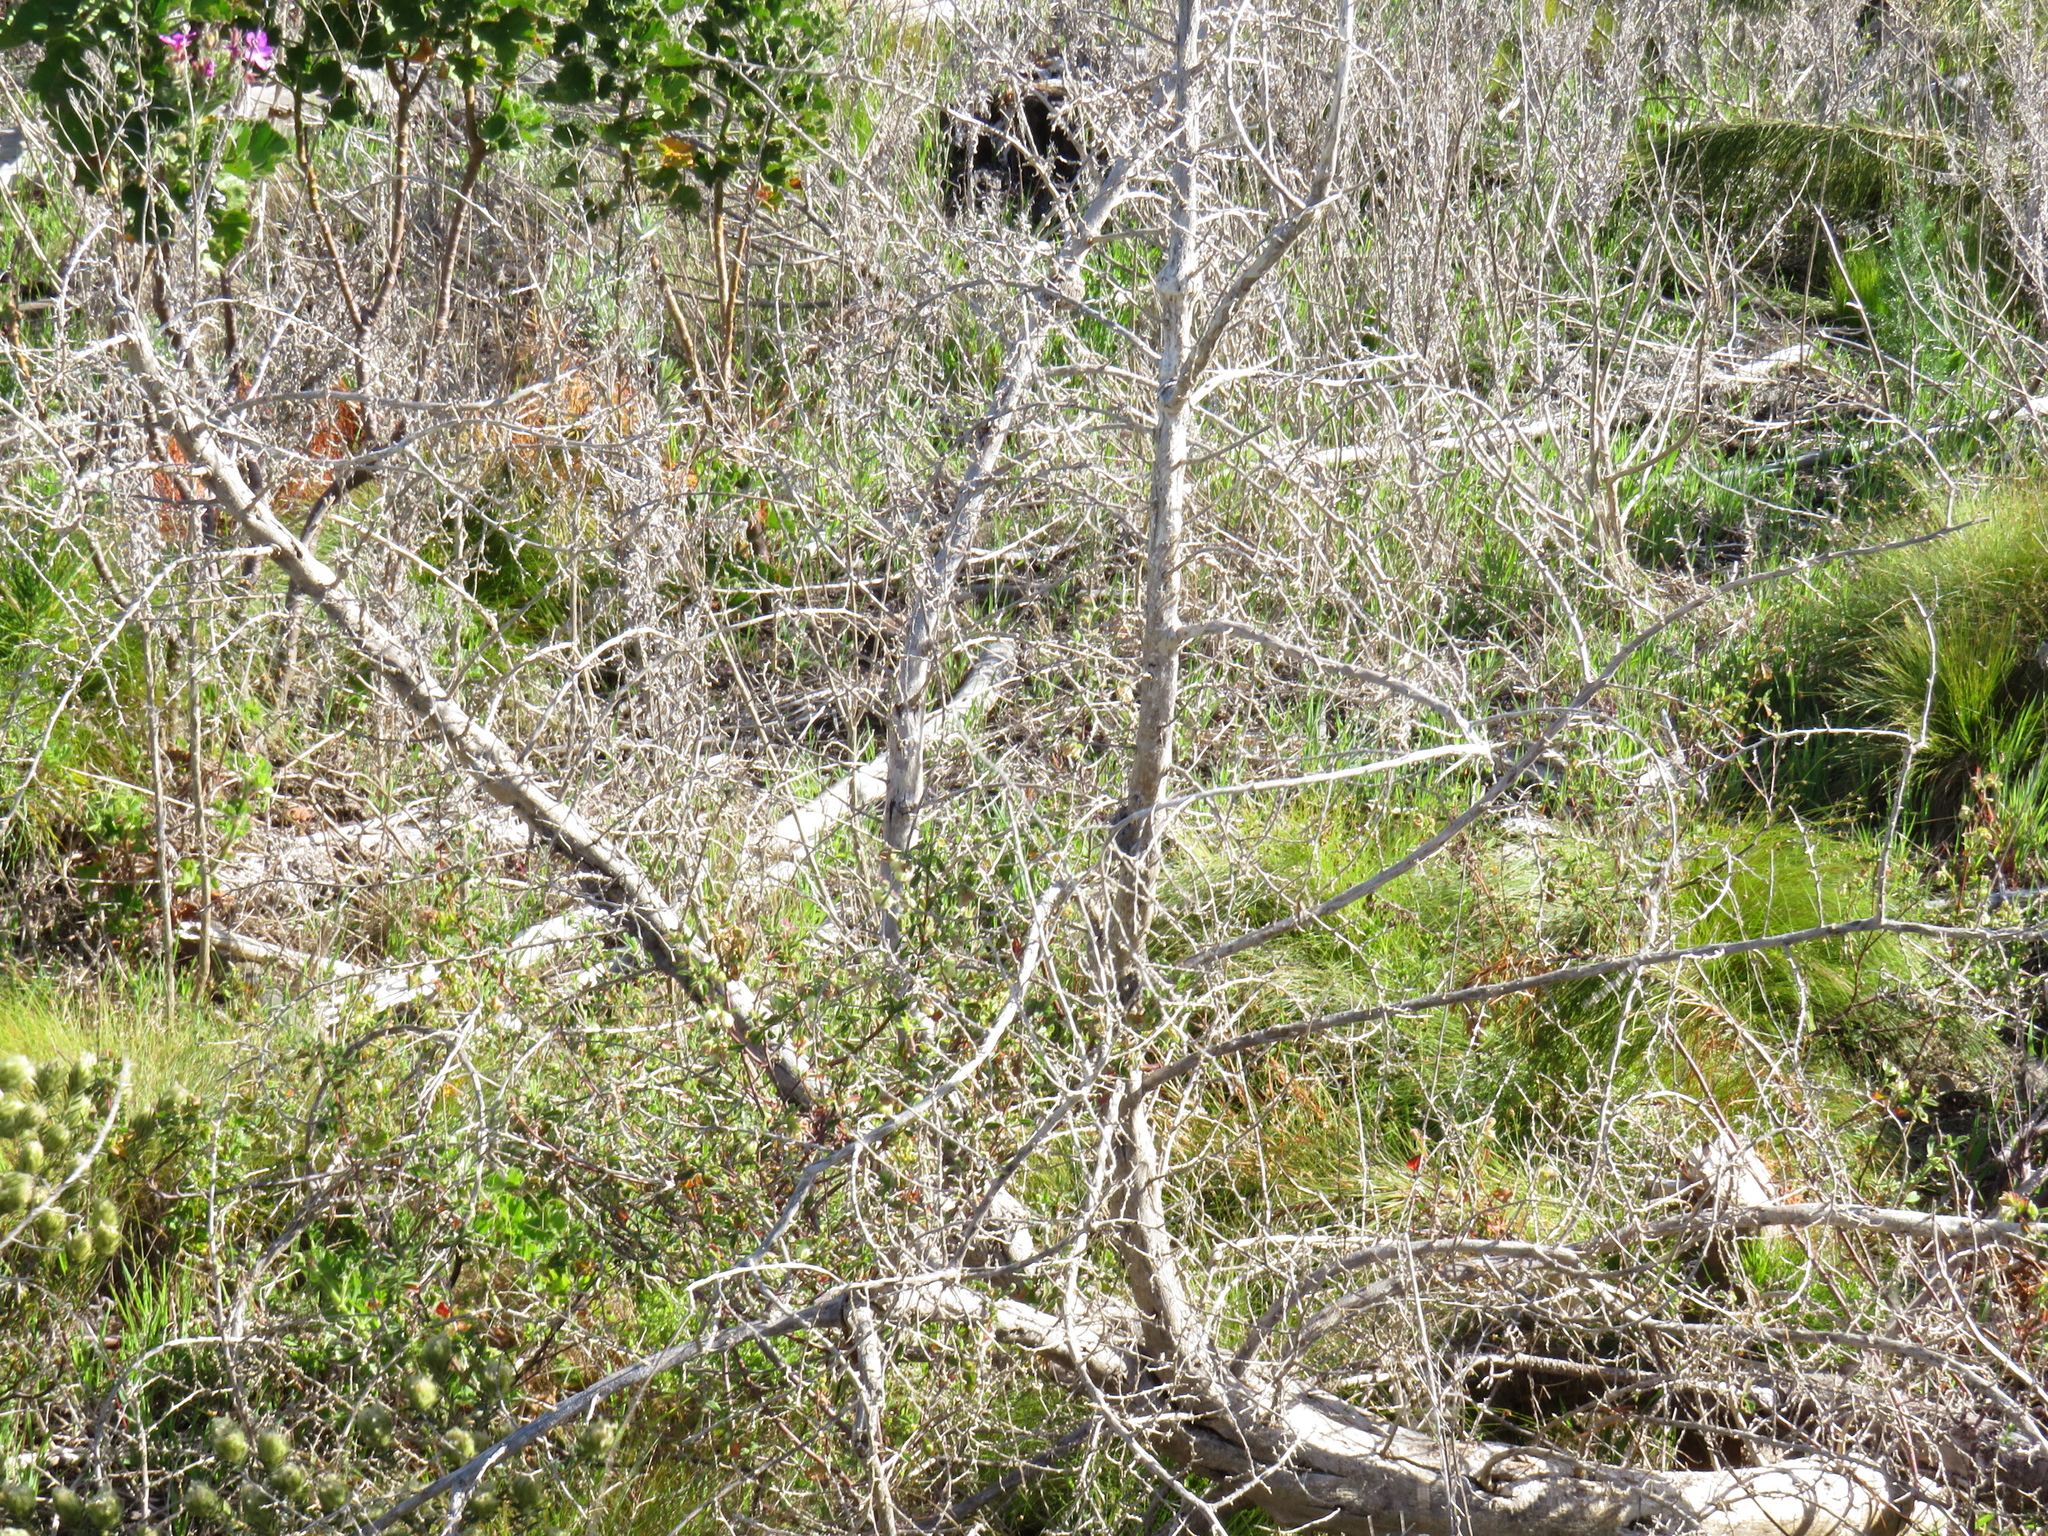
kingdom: Plantae
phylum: Tracheophyta
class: Magnoliopsida
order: Fabales
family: Fabaceae
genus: Aspalathus
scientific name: Aspalathus chenopoda
